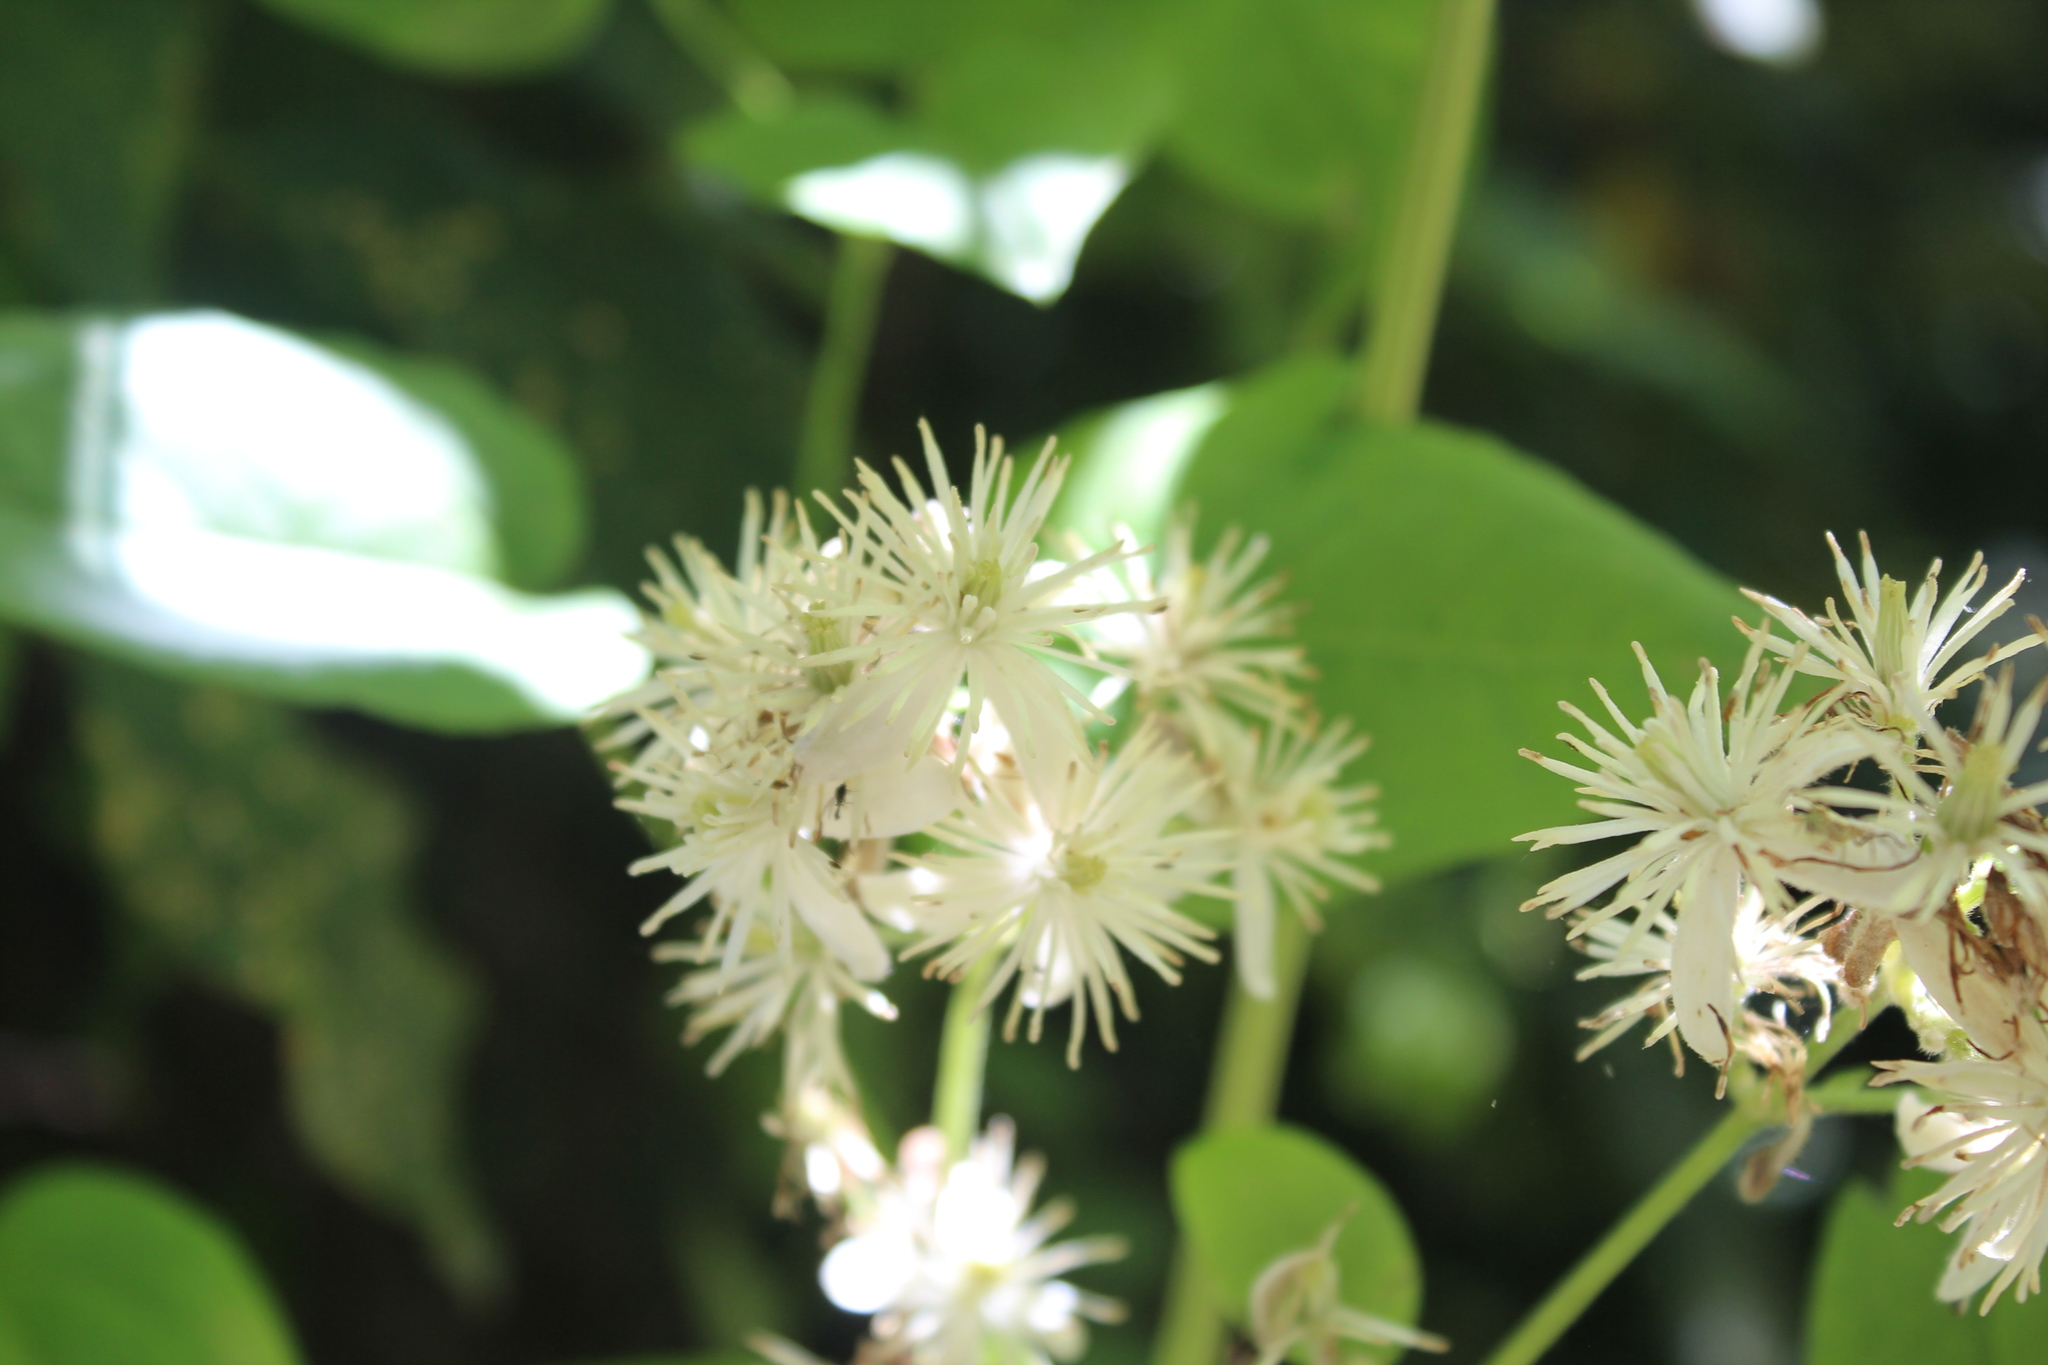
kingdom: Plantae
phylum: Tracheophyta
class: Magnoliopsida
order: Ranunculales
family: Ranunculaceae
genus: Clematis
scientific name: Clematis vitalba
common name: Evergreen clematis
